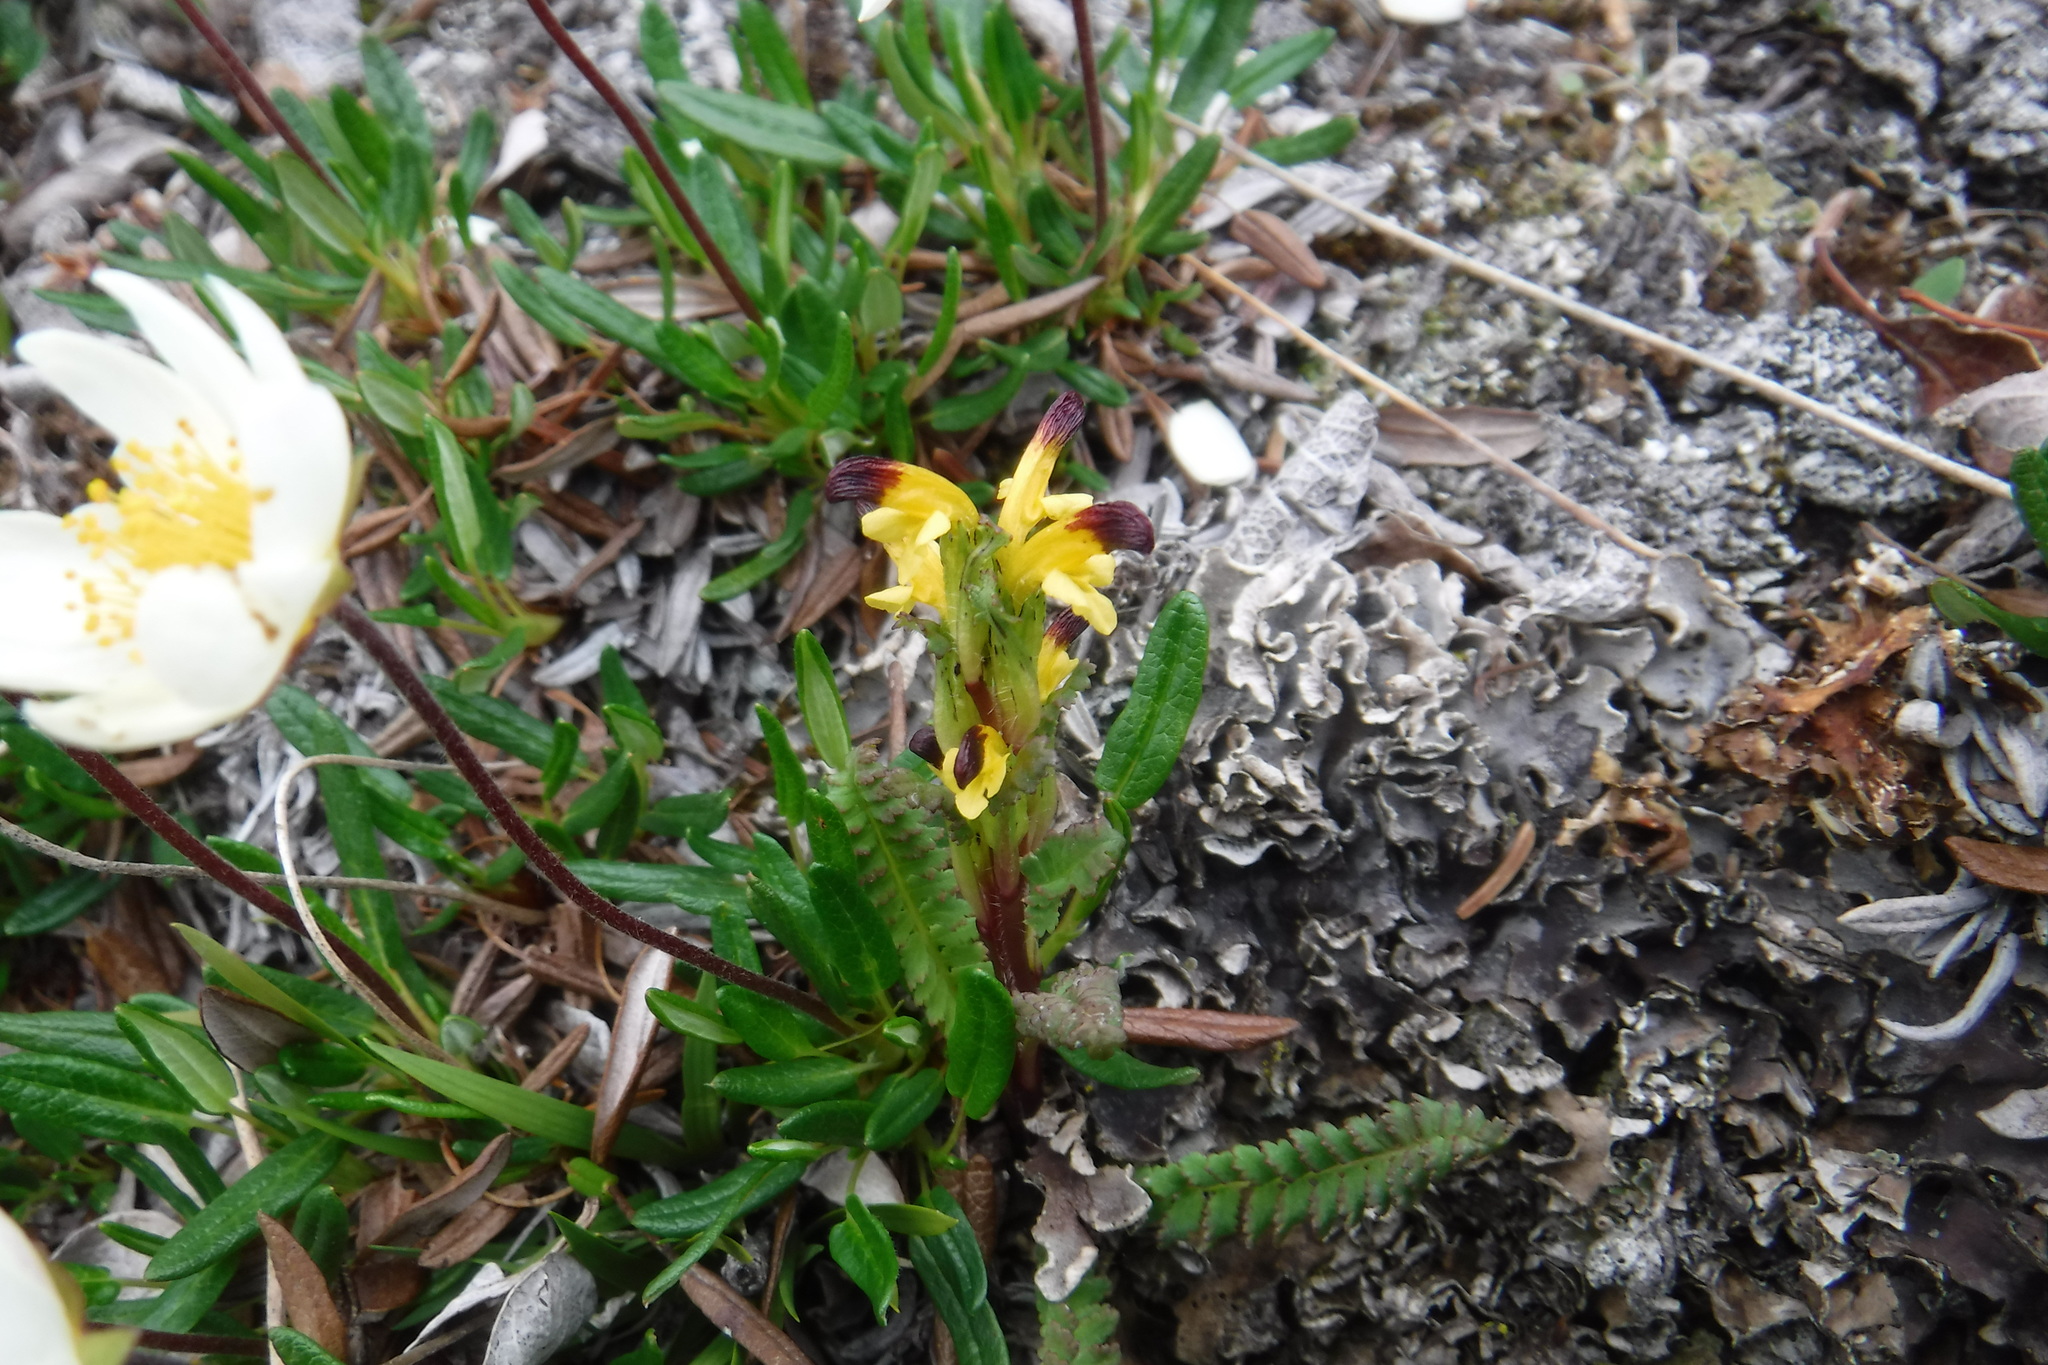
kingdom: Plantae
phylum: Tracheophyta
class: Magnoliopsida
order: Lamiales
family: Orobanchaceae
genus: Pedicularis
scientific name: Pedicularis flammea
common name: Flame-coloured lousewort
